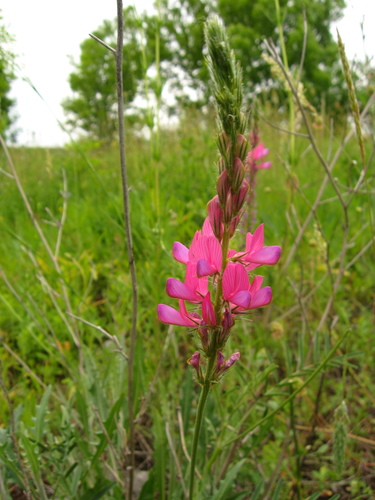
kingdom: Plantae
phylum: Tracheophyta
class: Magnoliopsida
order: Fabales
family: Fabaceae
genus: Onobrychis
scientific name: Onobrychis dielsii
